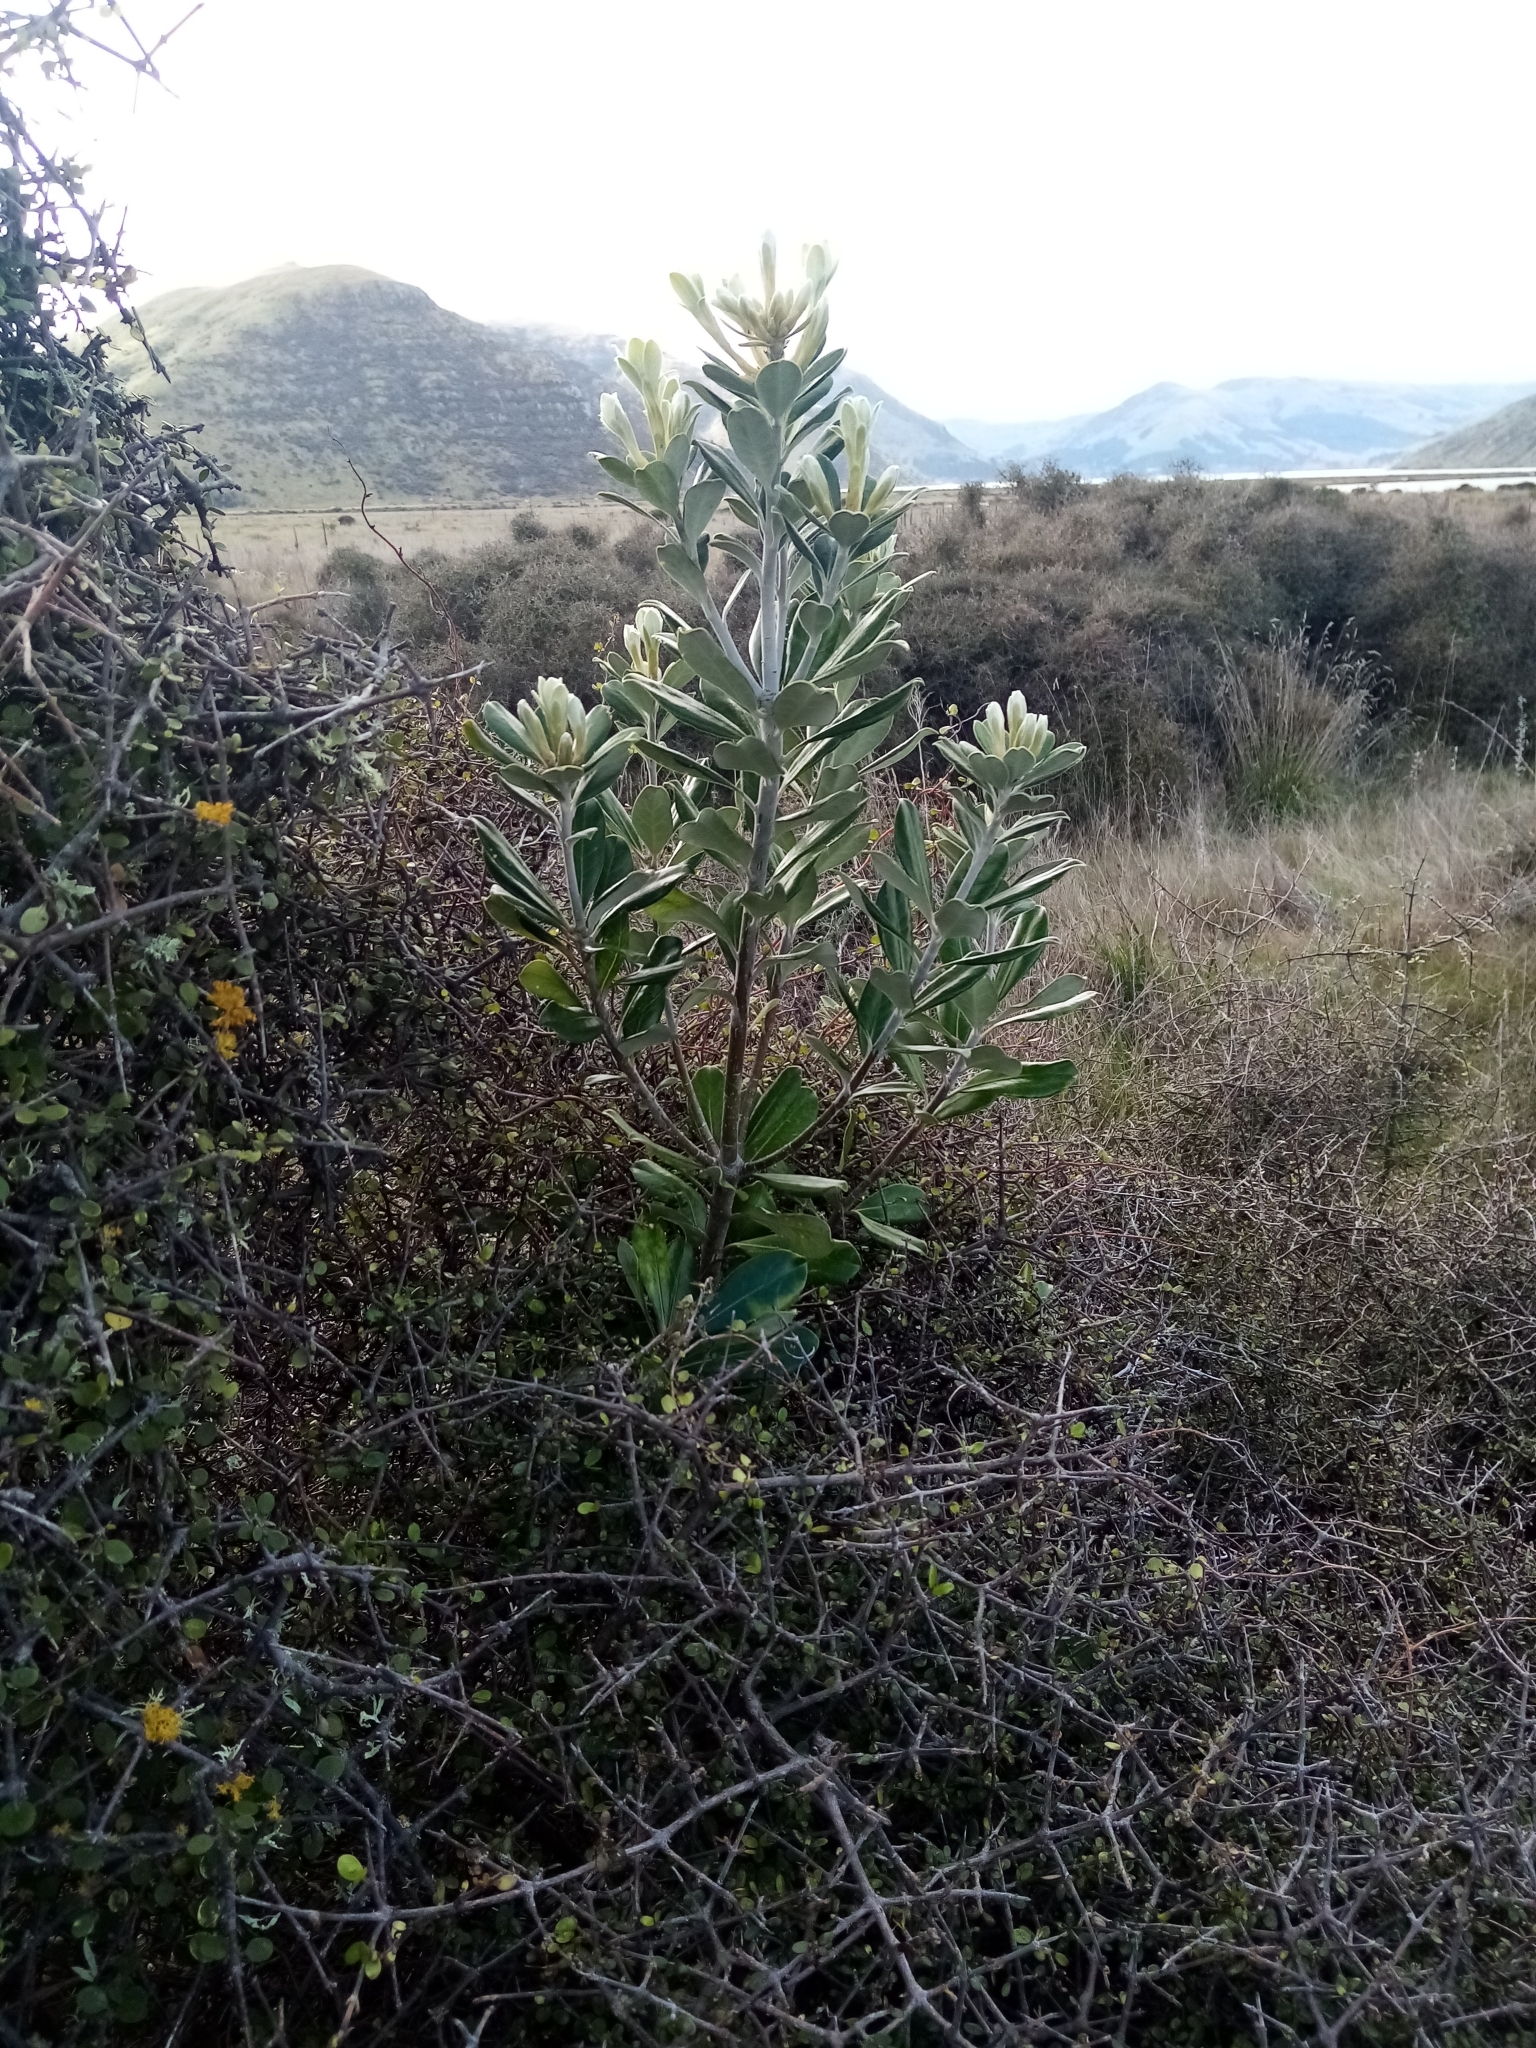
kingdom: Plantae
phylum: Tracheophyta
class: Magnoliopsida
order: Apiales
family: Pittosporaceae
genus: Pittosporum
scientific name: Pittosporum crassifolium
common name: Karo
